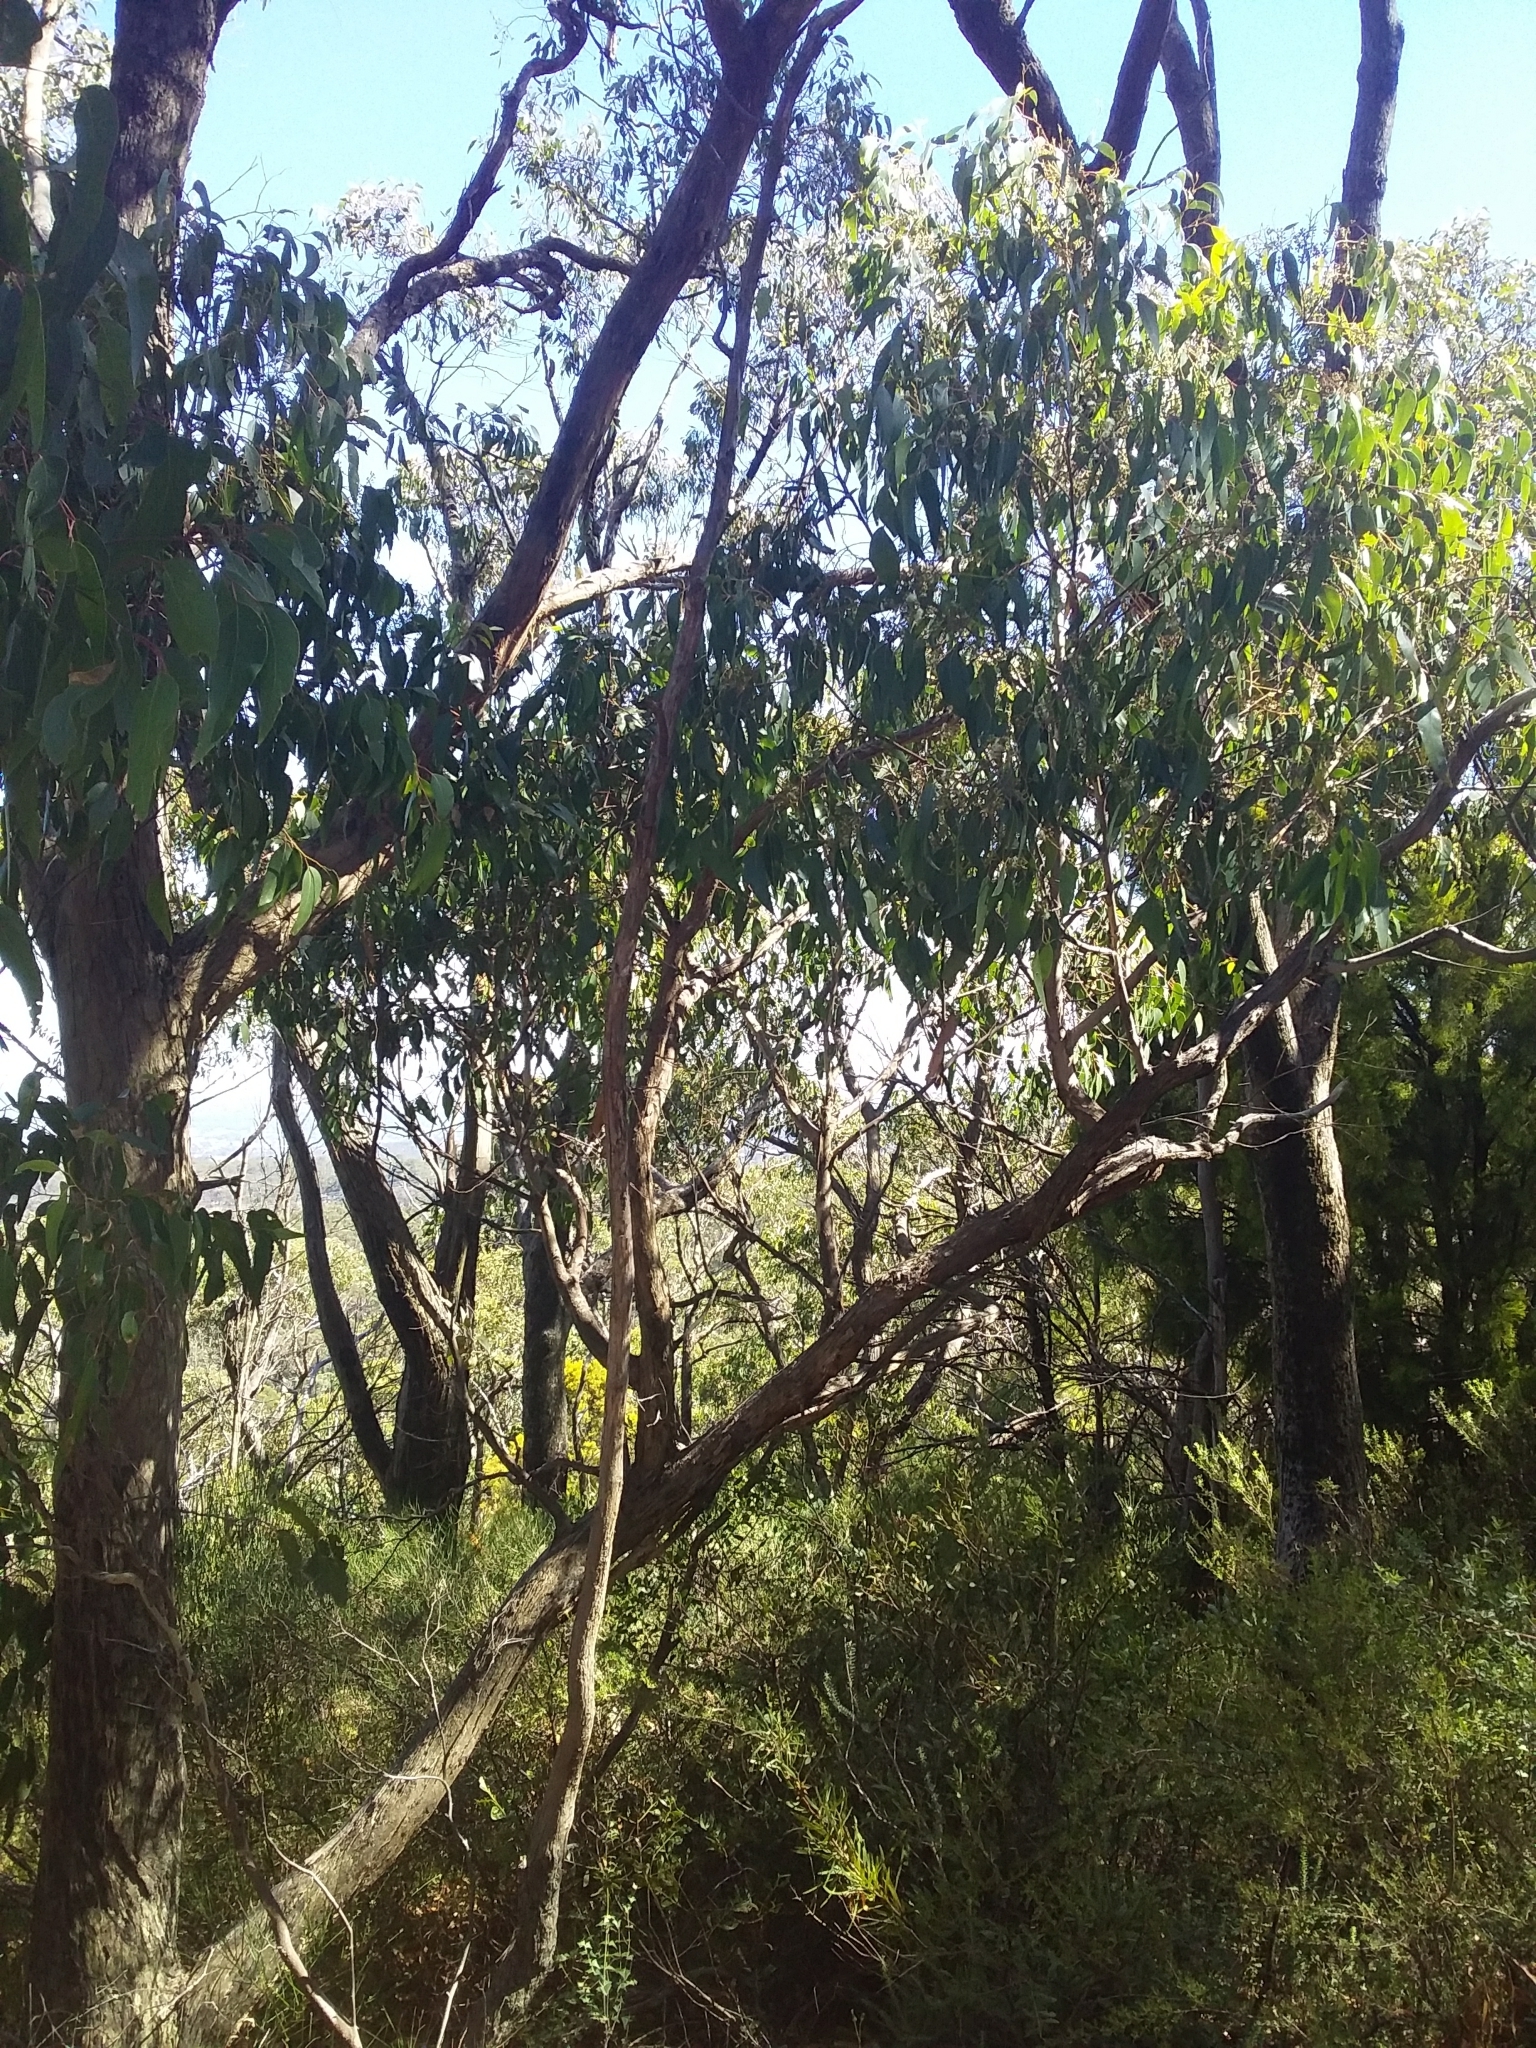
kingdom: Plantae
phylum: Tracheophyta
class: Magnoliopsida
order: Myrtales
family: Myrtaceae
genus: Eucalyptus
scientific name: Eucalyptus obliqua
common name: Messmate stringybark
